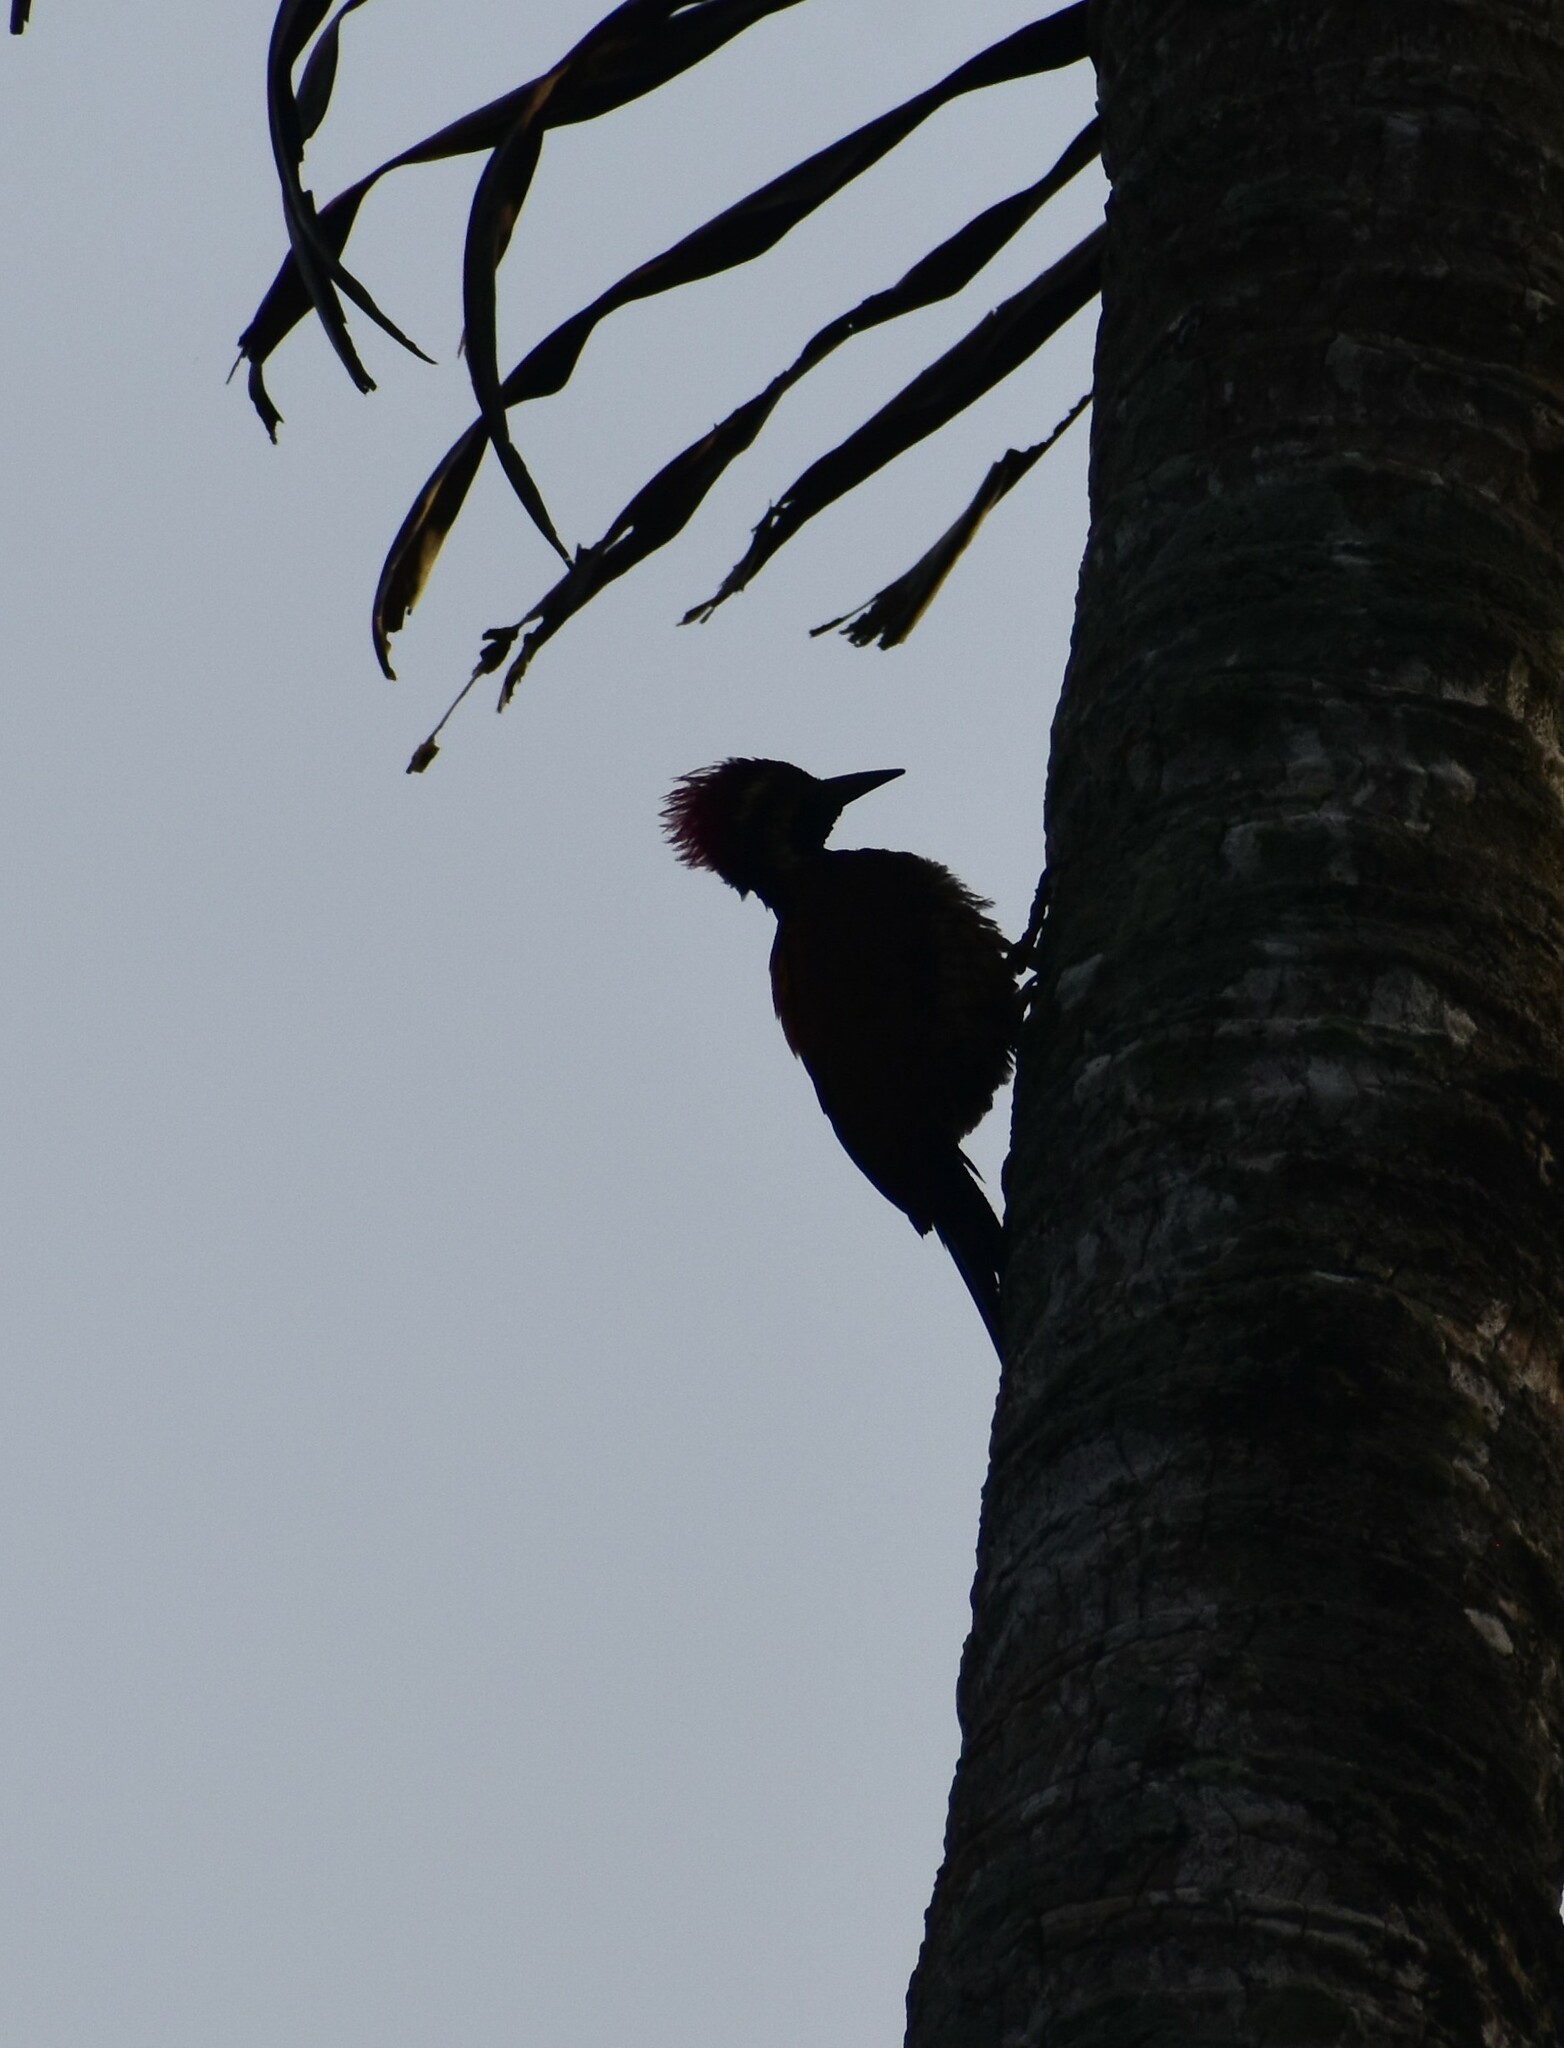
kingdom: Animalia
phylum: Chordata
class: Aves
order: Piciformes
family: Picidae
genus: Dinopium
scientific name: Dinopium benghalense
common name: Black-rumped flameback
